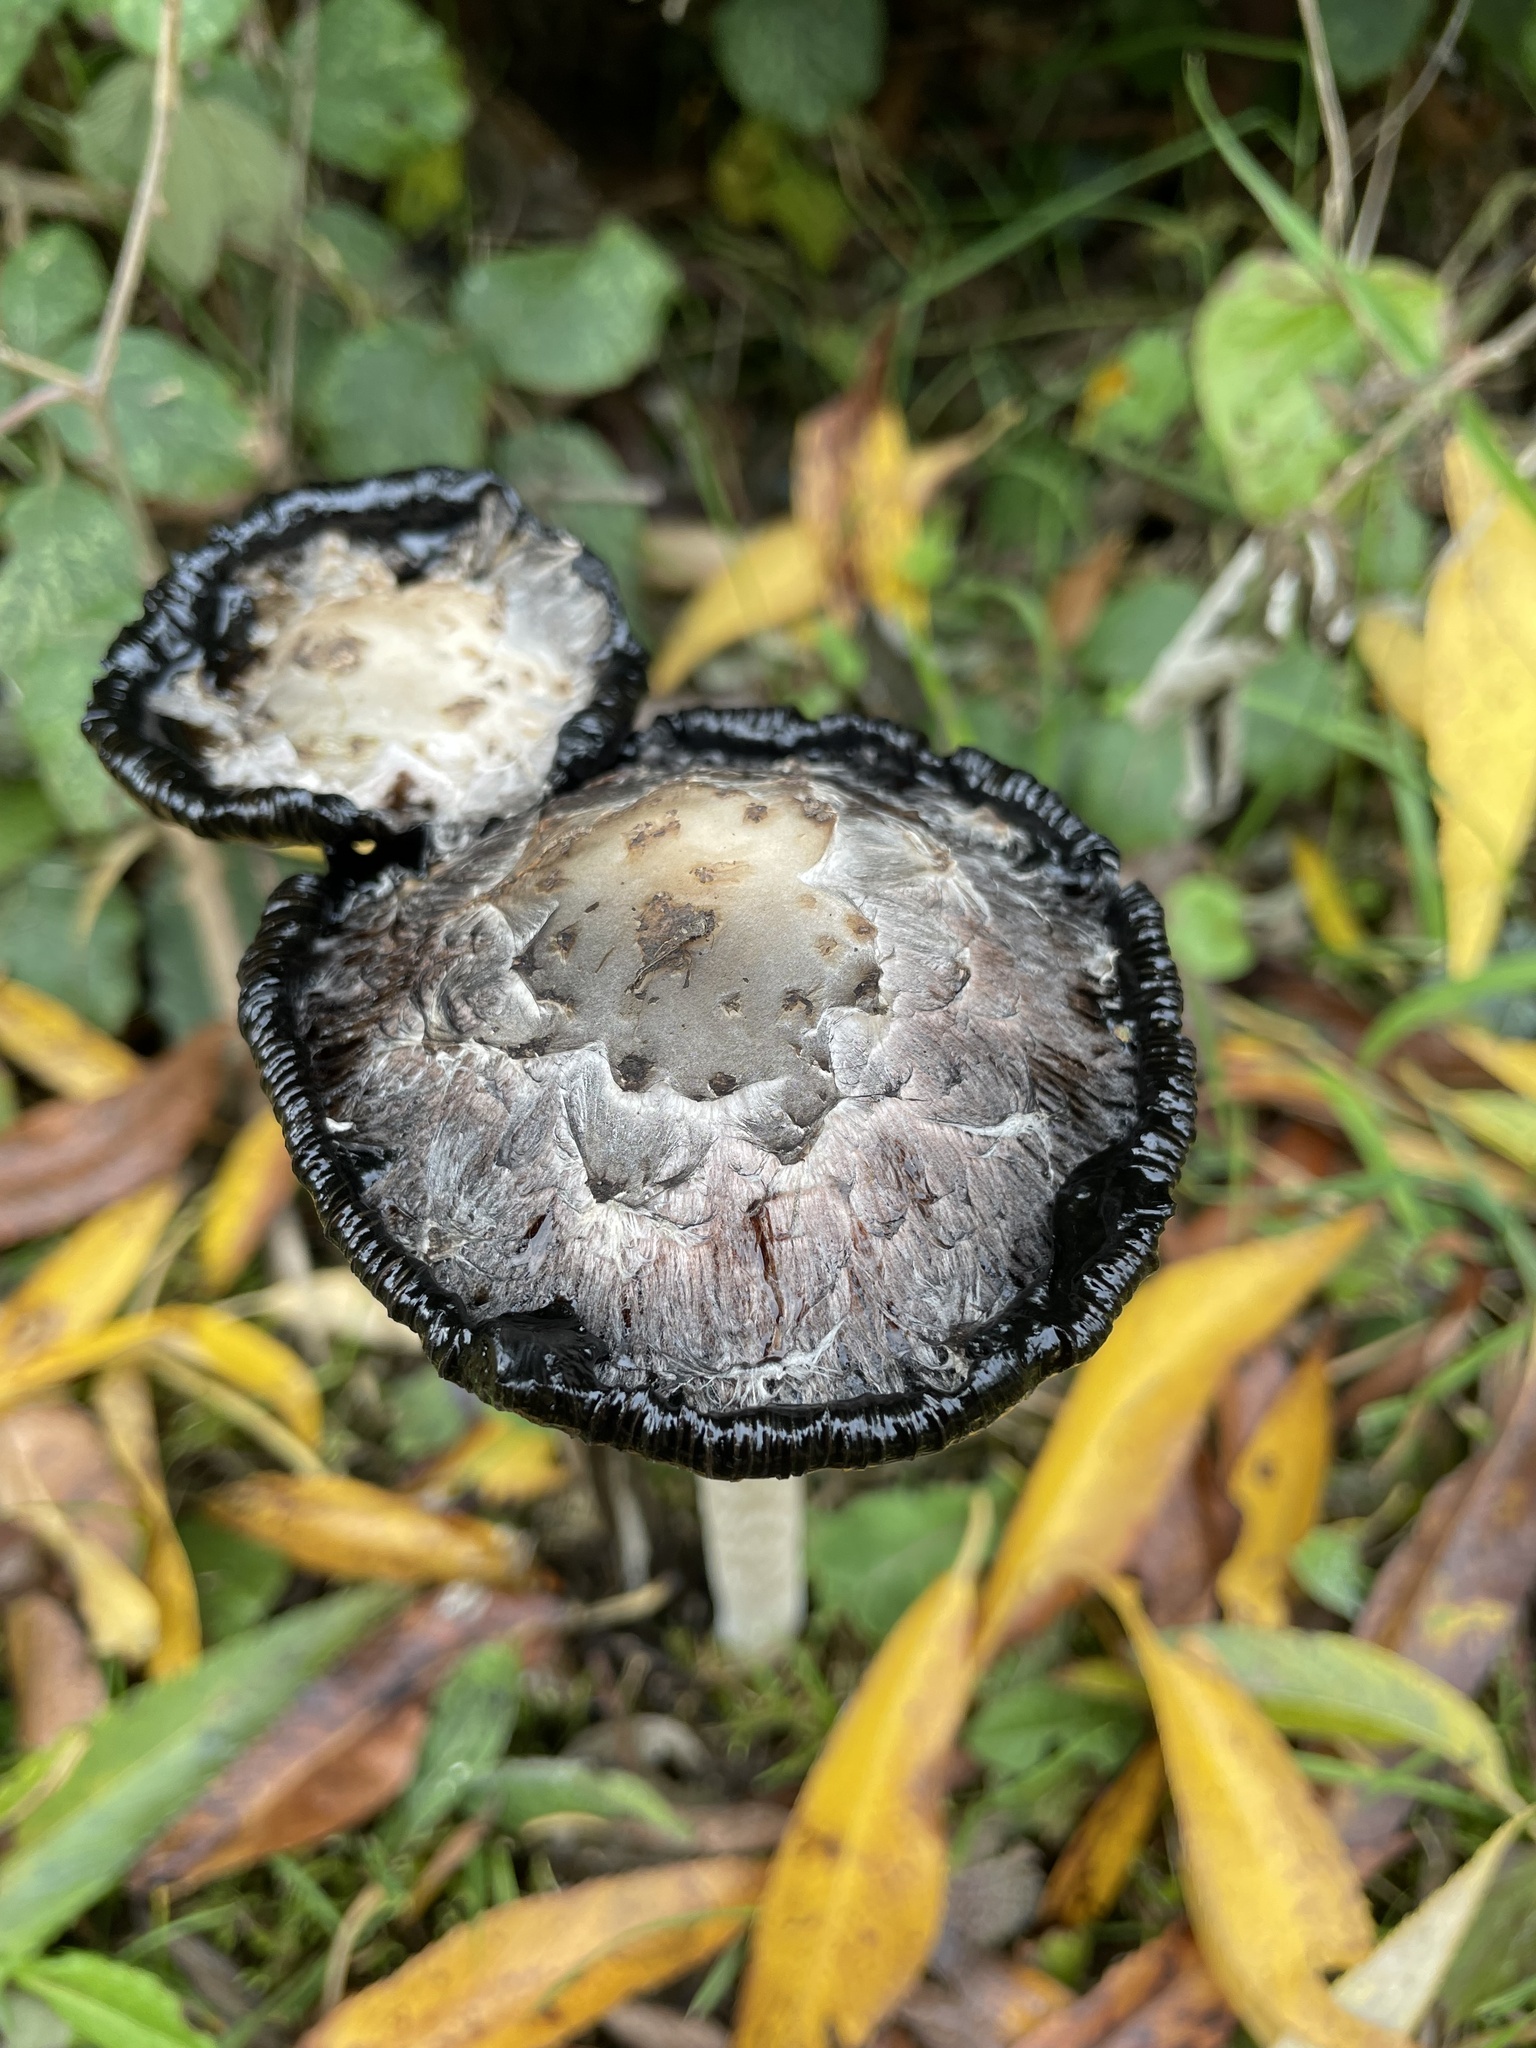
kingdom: Fungi
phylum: Basidiomycota
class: Agaricomycetes
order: Agaricales
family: Agaricaceae
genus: Coprinus
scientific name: Coprinus comatus
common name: Lawyer's wig
